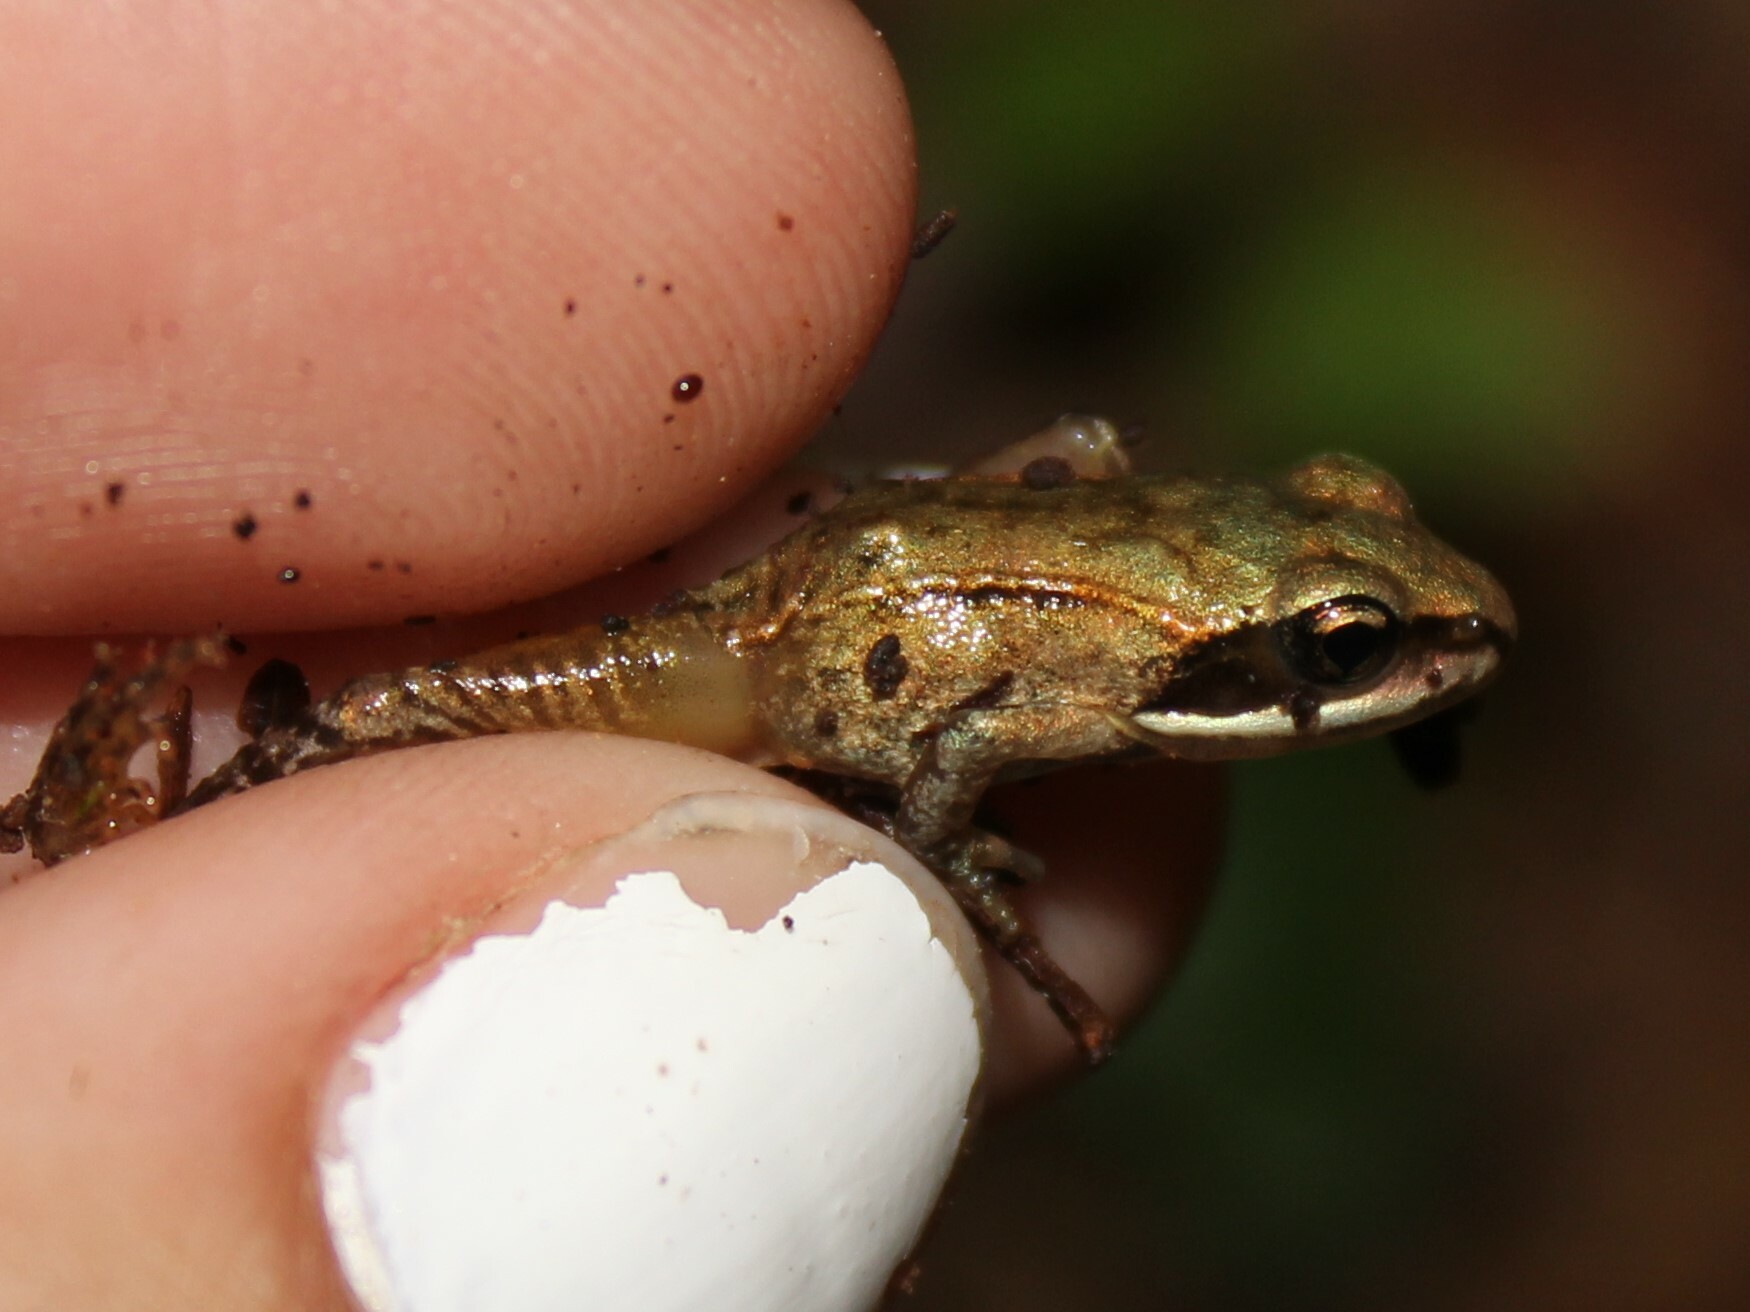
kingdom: Animalia
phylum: Chordata
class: Amphibia
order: Anura
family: Ranidae
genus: Lithobates
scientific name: Lithobates sylvaticus
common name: Wood frog
